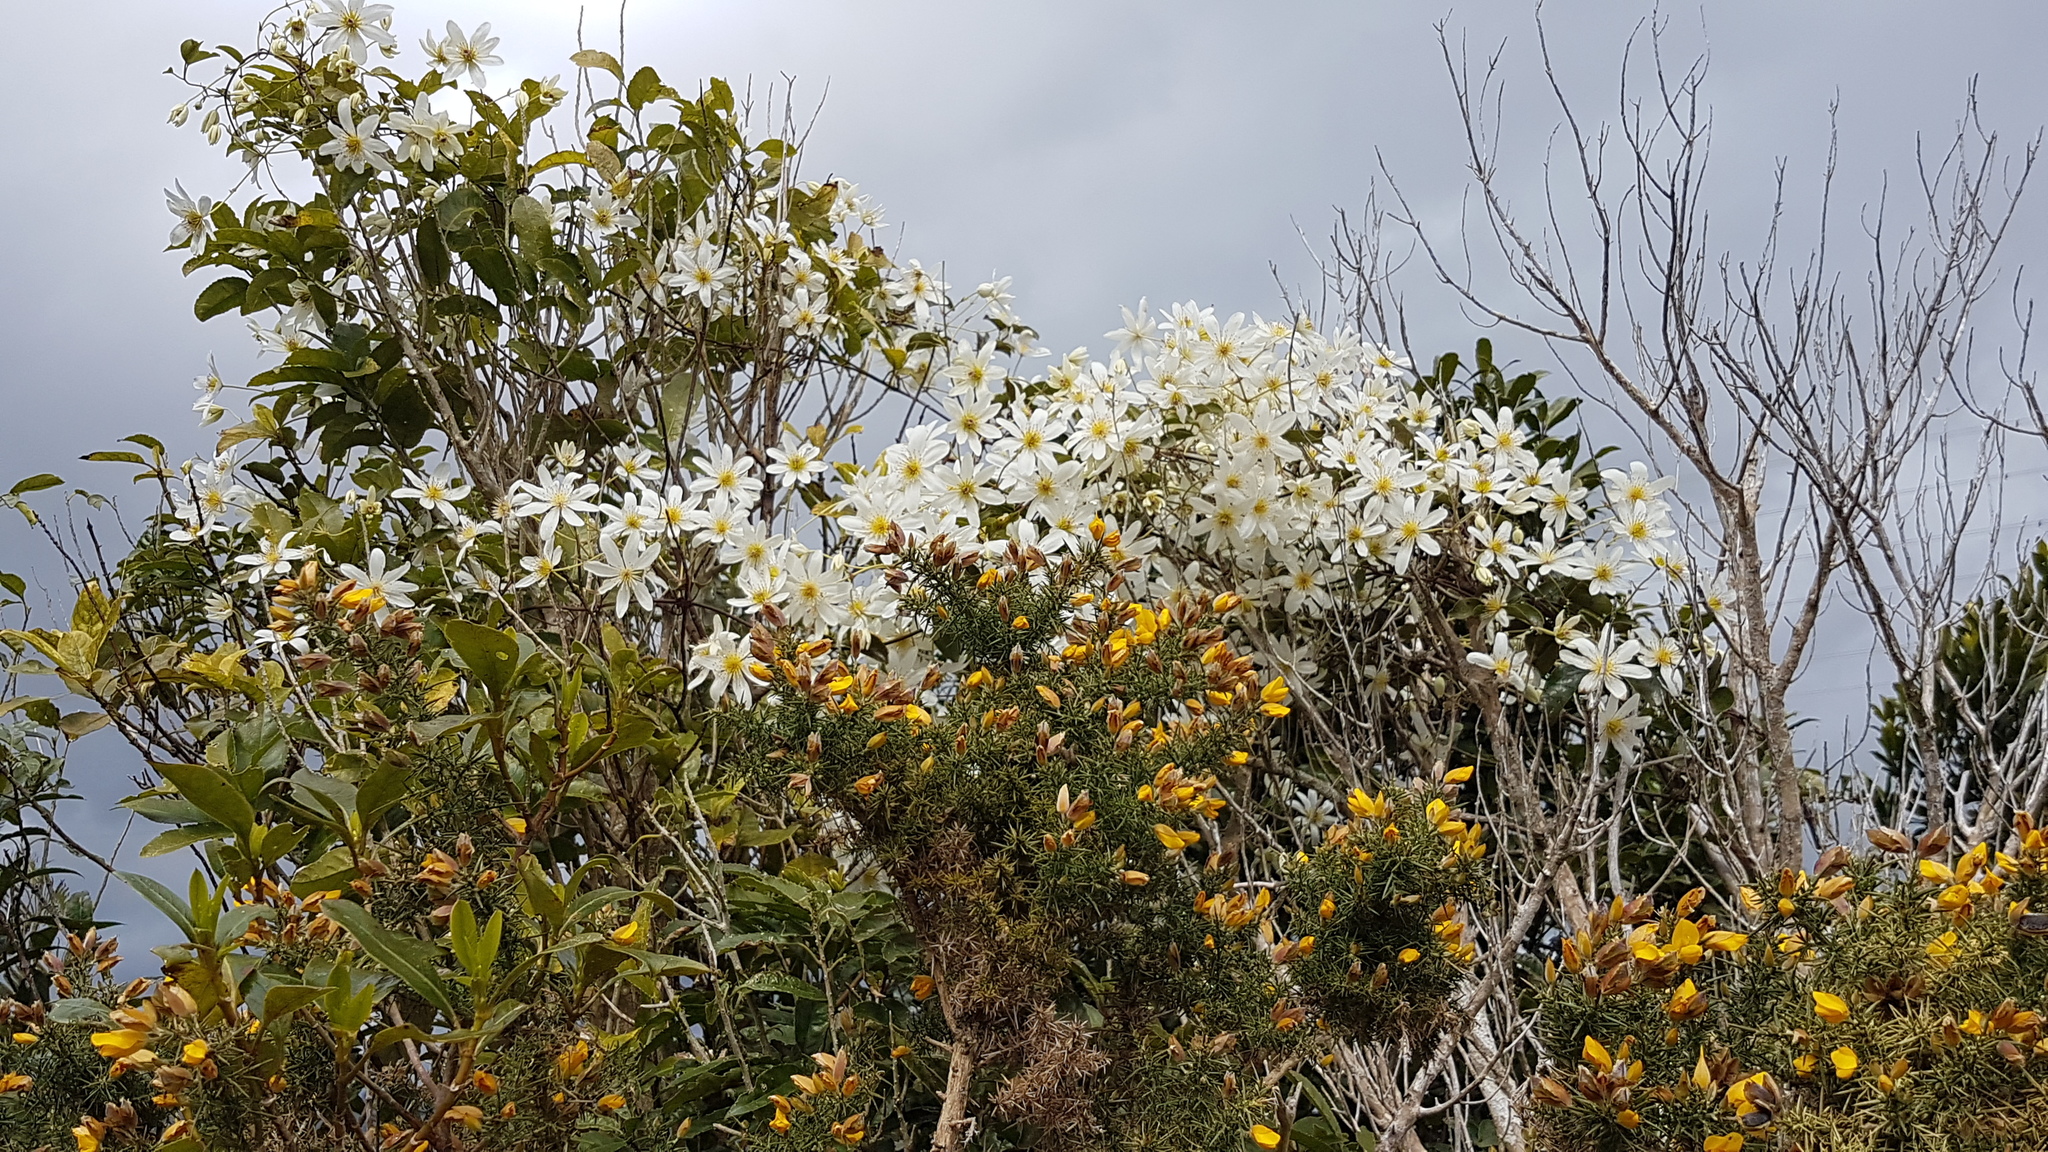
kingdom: Plantae
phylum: Tracheophyta
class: Magnoliopsida
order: Ranunculales
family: Ranunculaceae
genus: Clematis
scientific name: Clematis paniculata
